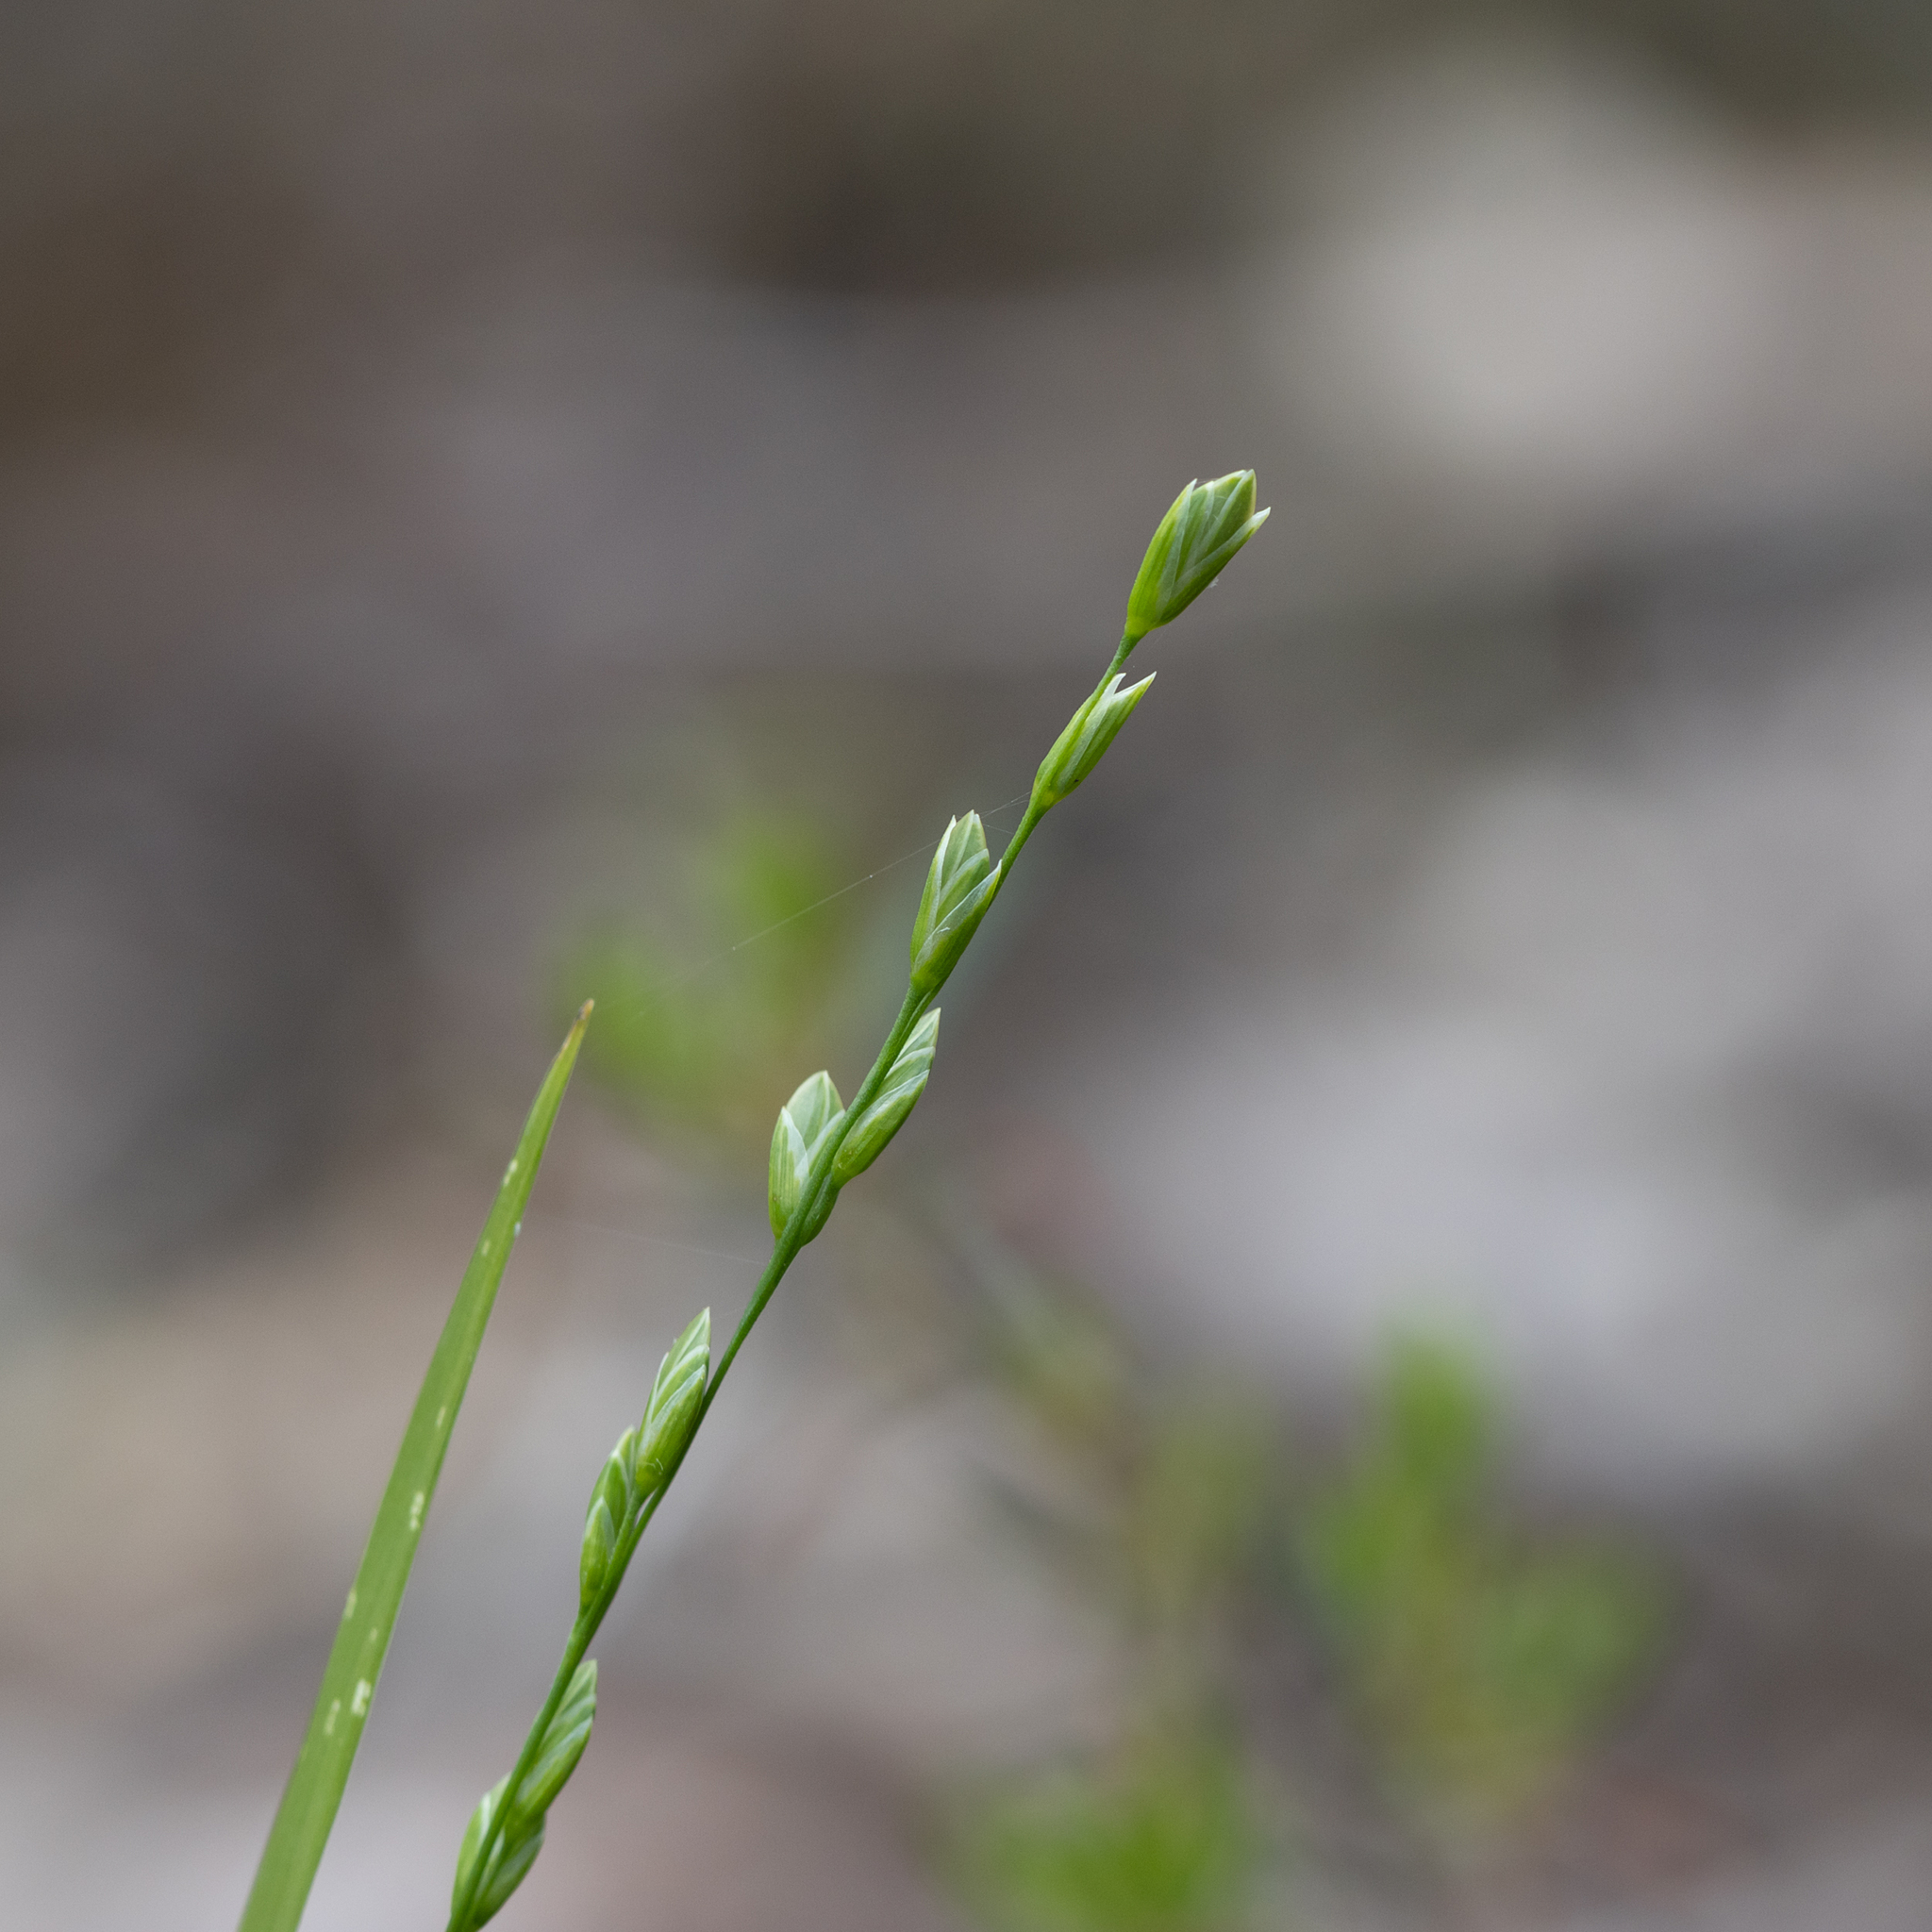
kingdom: Plantae
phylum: Tracheophyta
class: Liliopsida
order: Poales
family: Poaceae
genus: Tetrarrhena
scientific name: Tetrarrhena laevis
